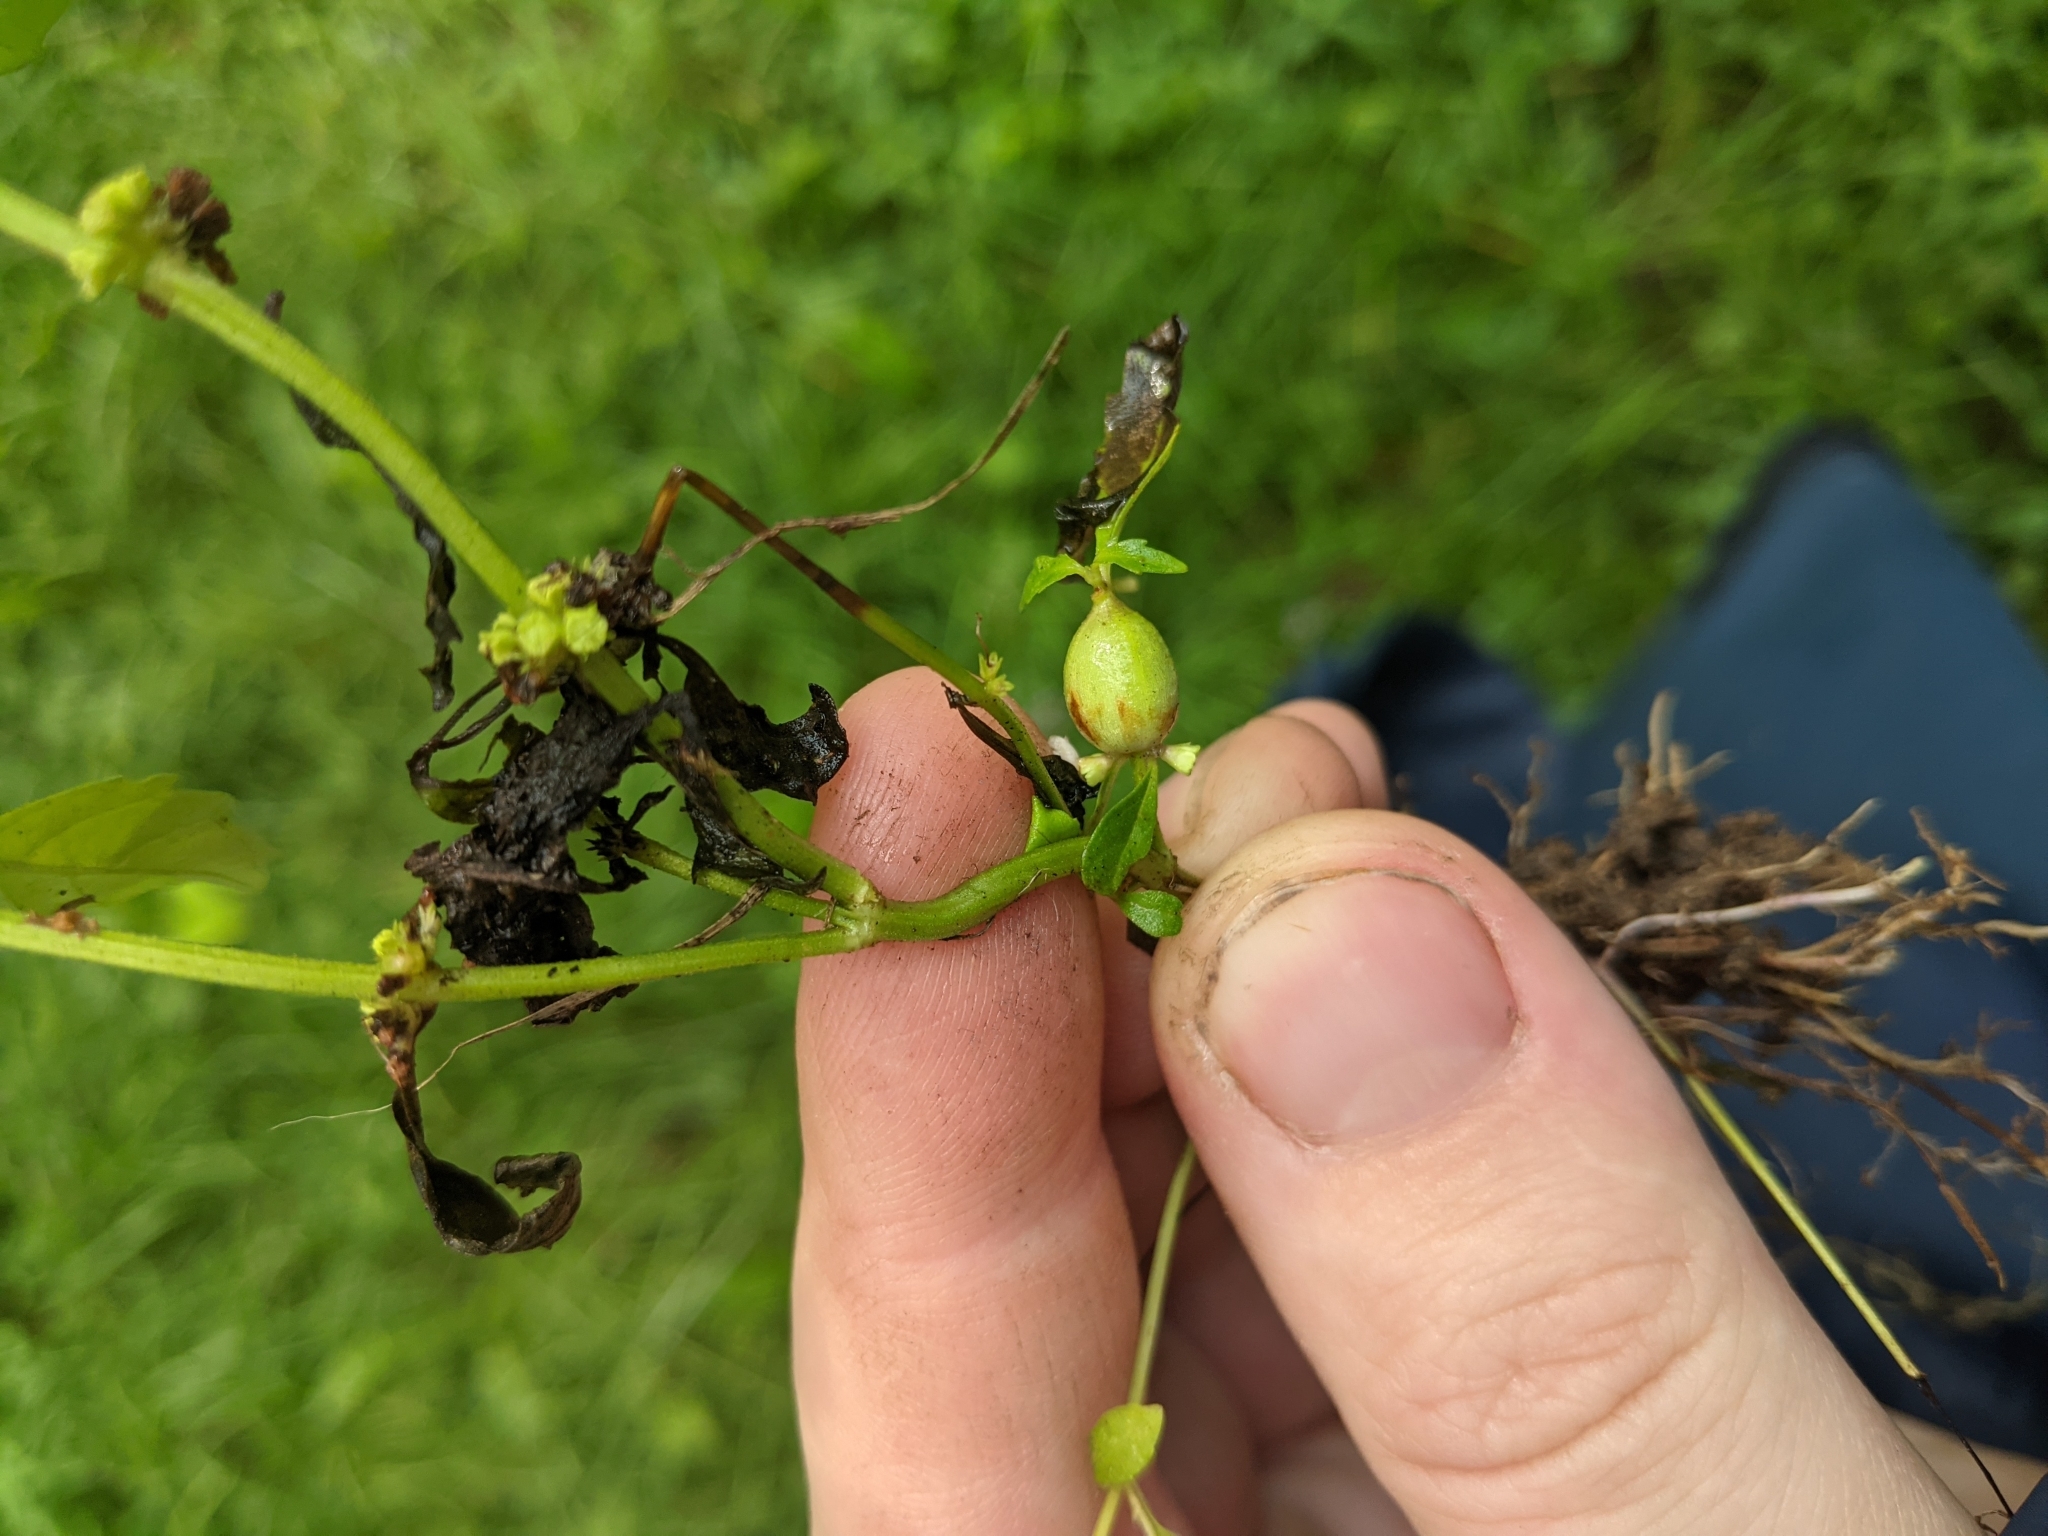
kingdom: Animalia
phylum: Arthropoda
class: Insecta
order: Diptera
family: Cecidomyiidae
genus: Neolasioptera
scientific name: Neolasioptera lycopi
